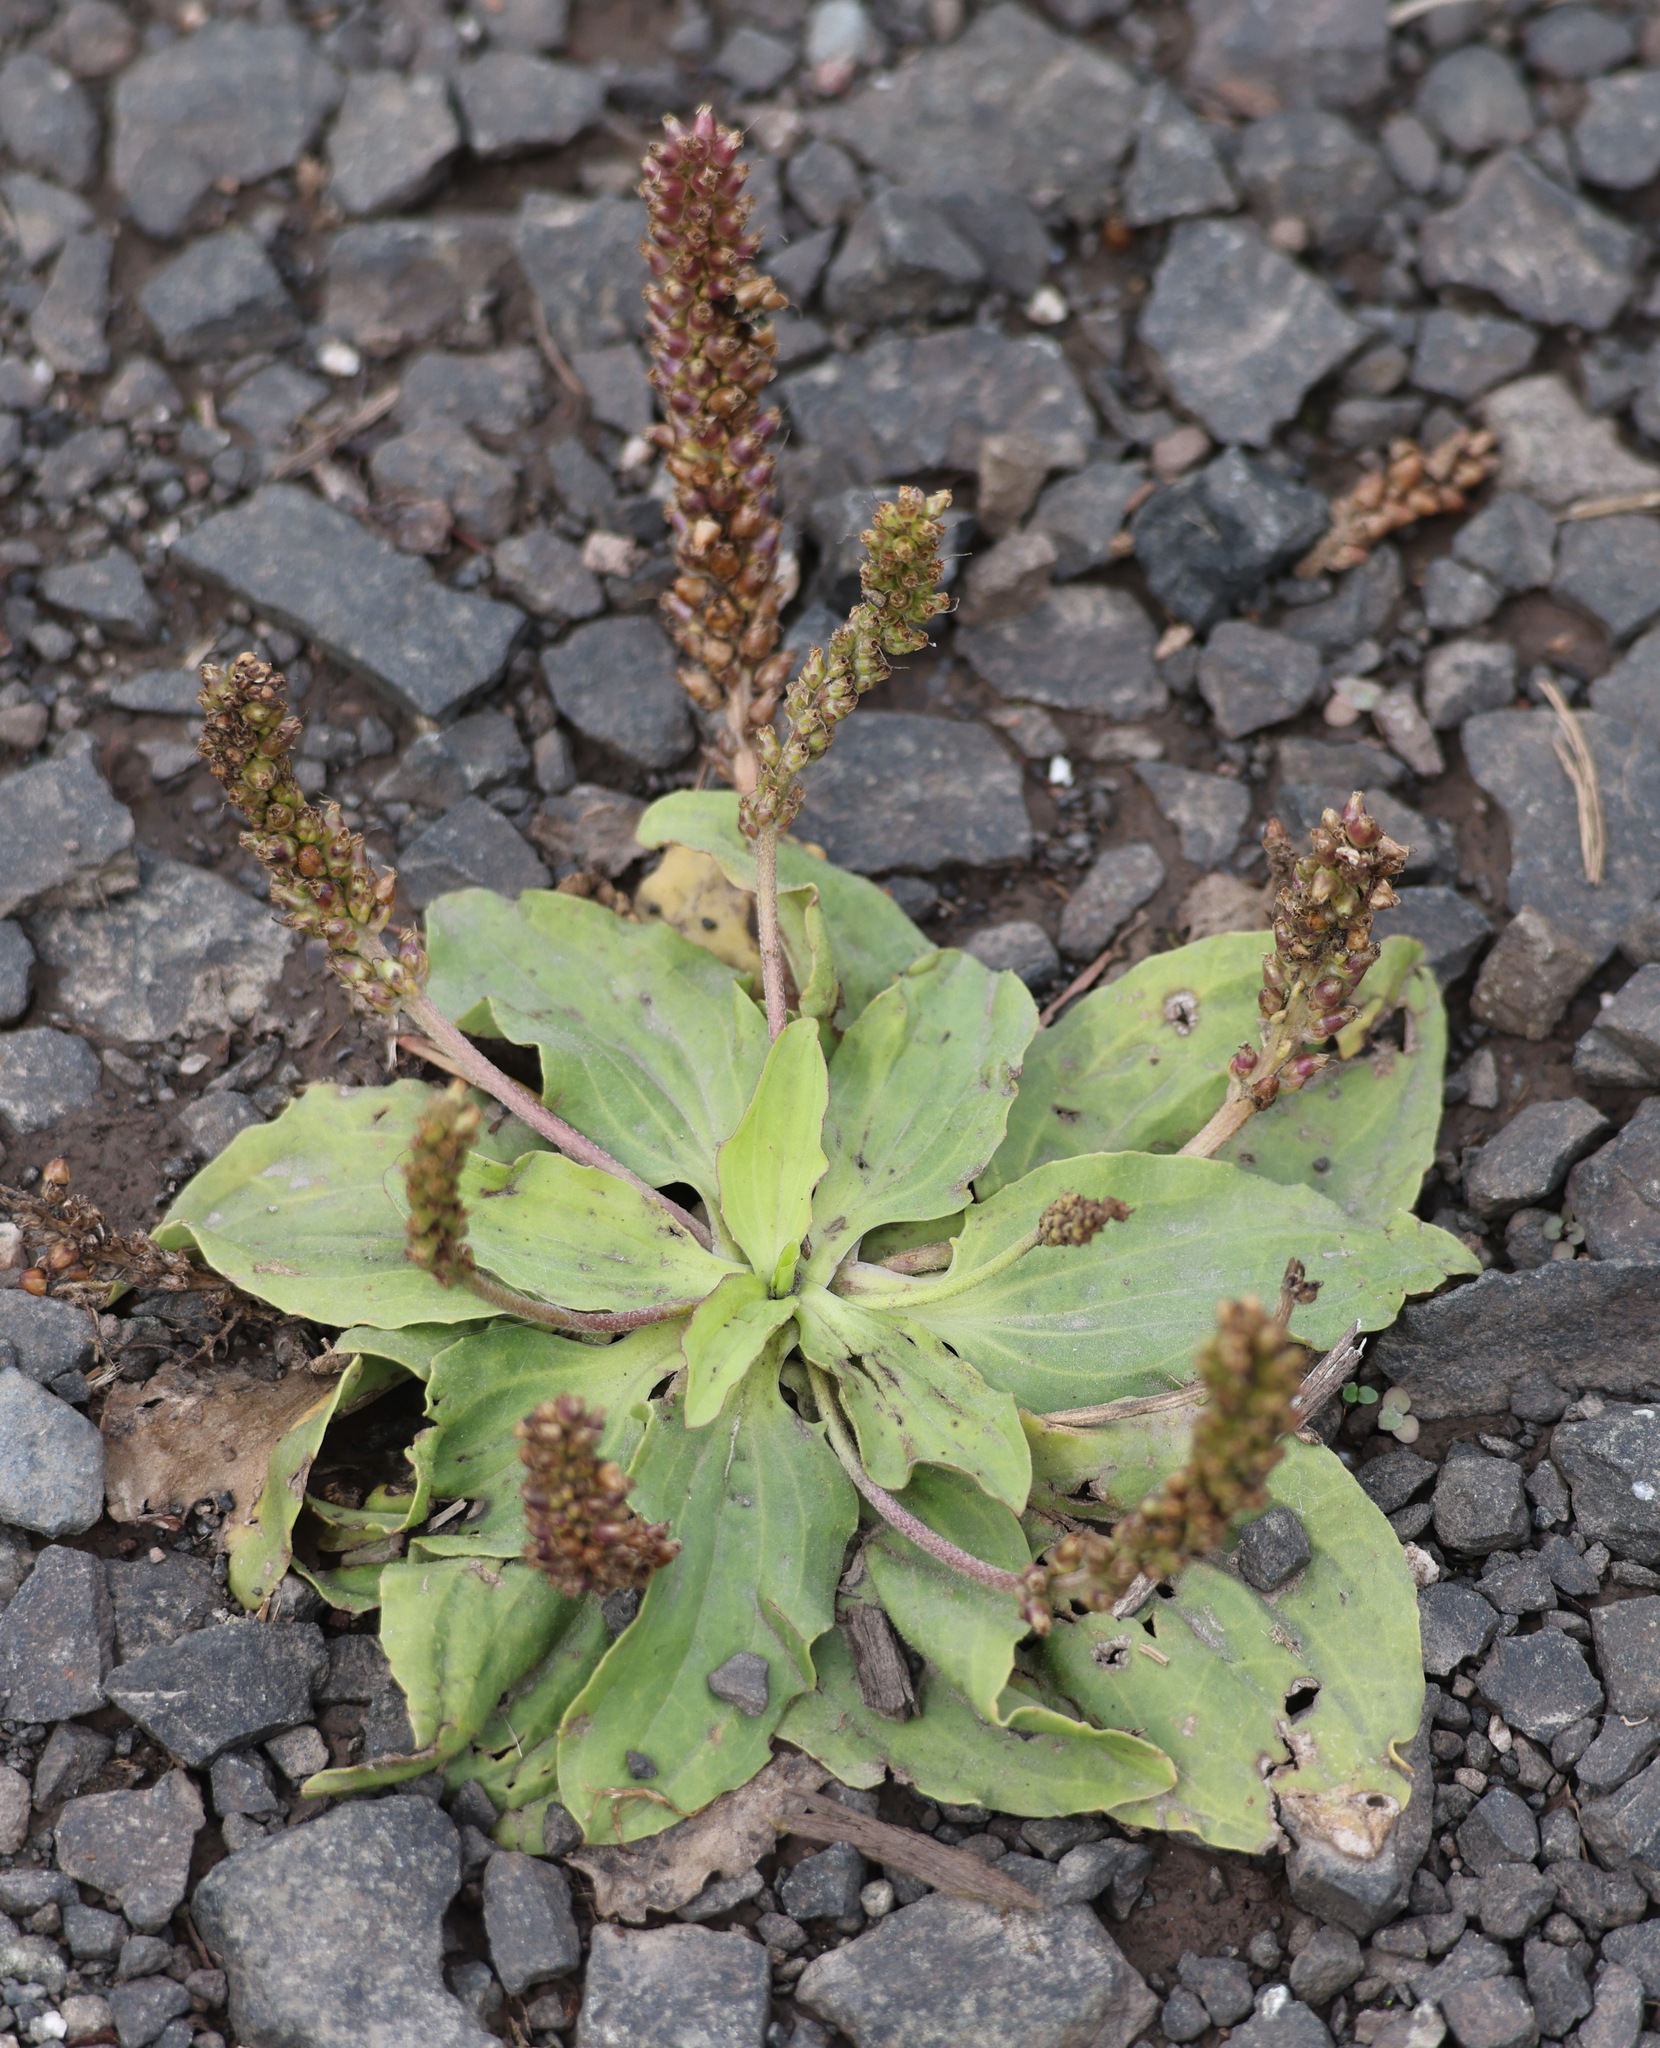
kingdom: Plantae
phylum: Tracheophyta
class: Magnoliopsida
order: Lamiales
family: Plantaginaceae
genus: Plantago
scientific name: Plantago major
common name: Common plantain
